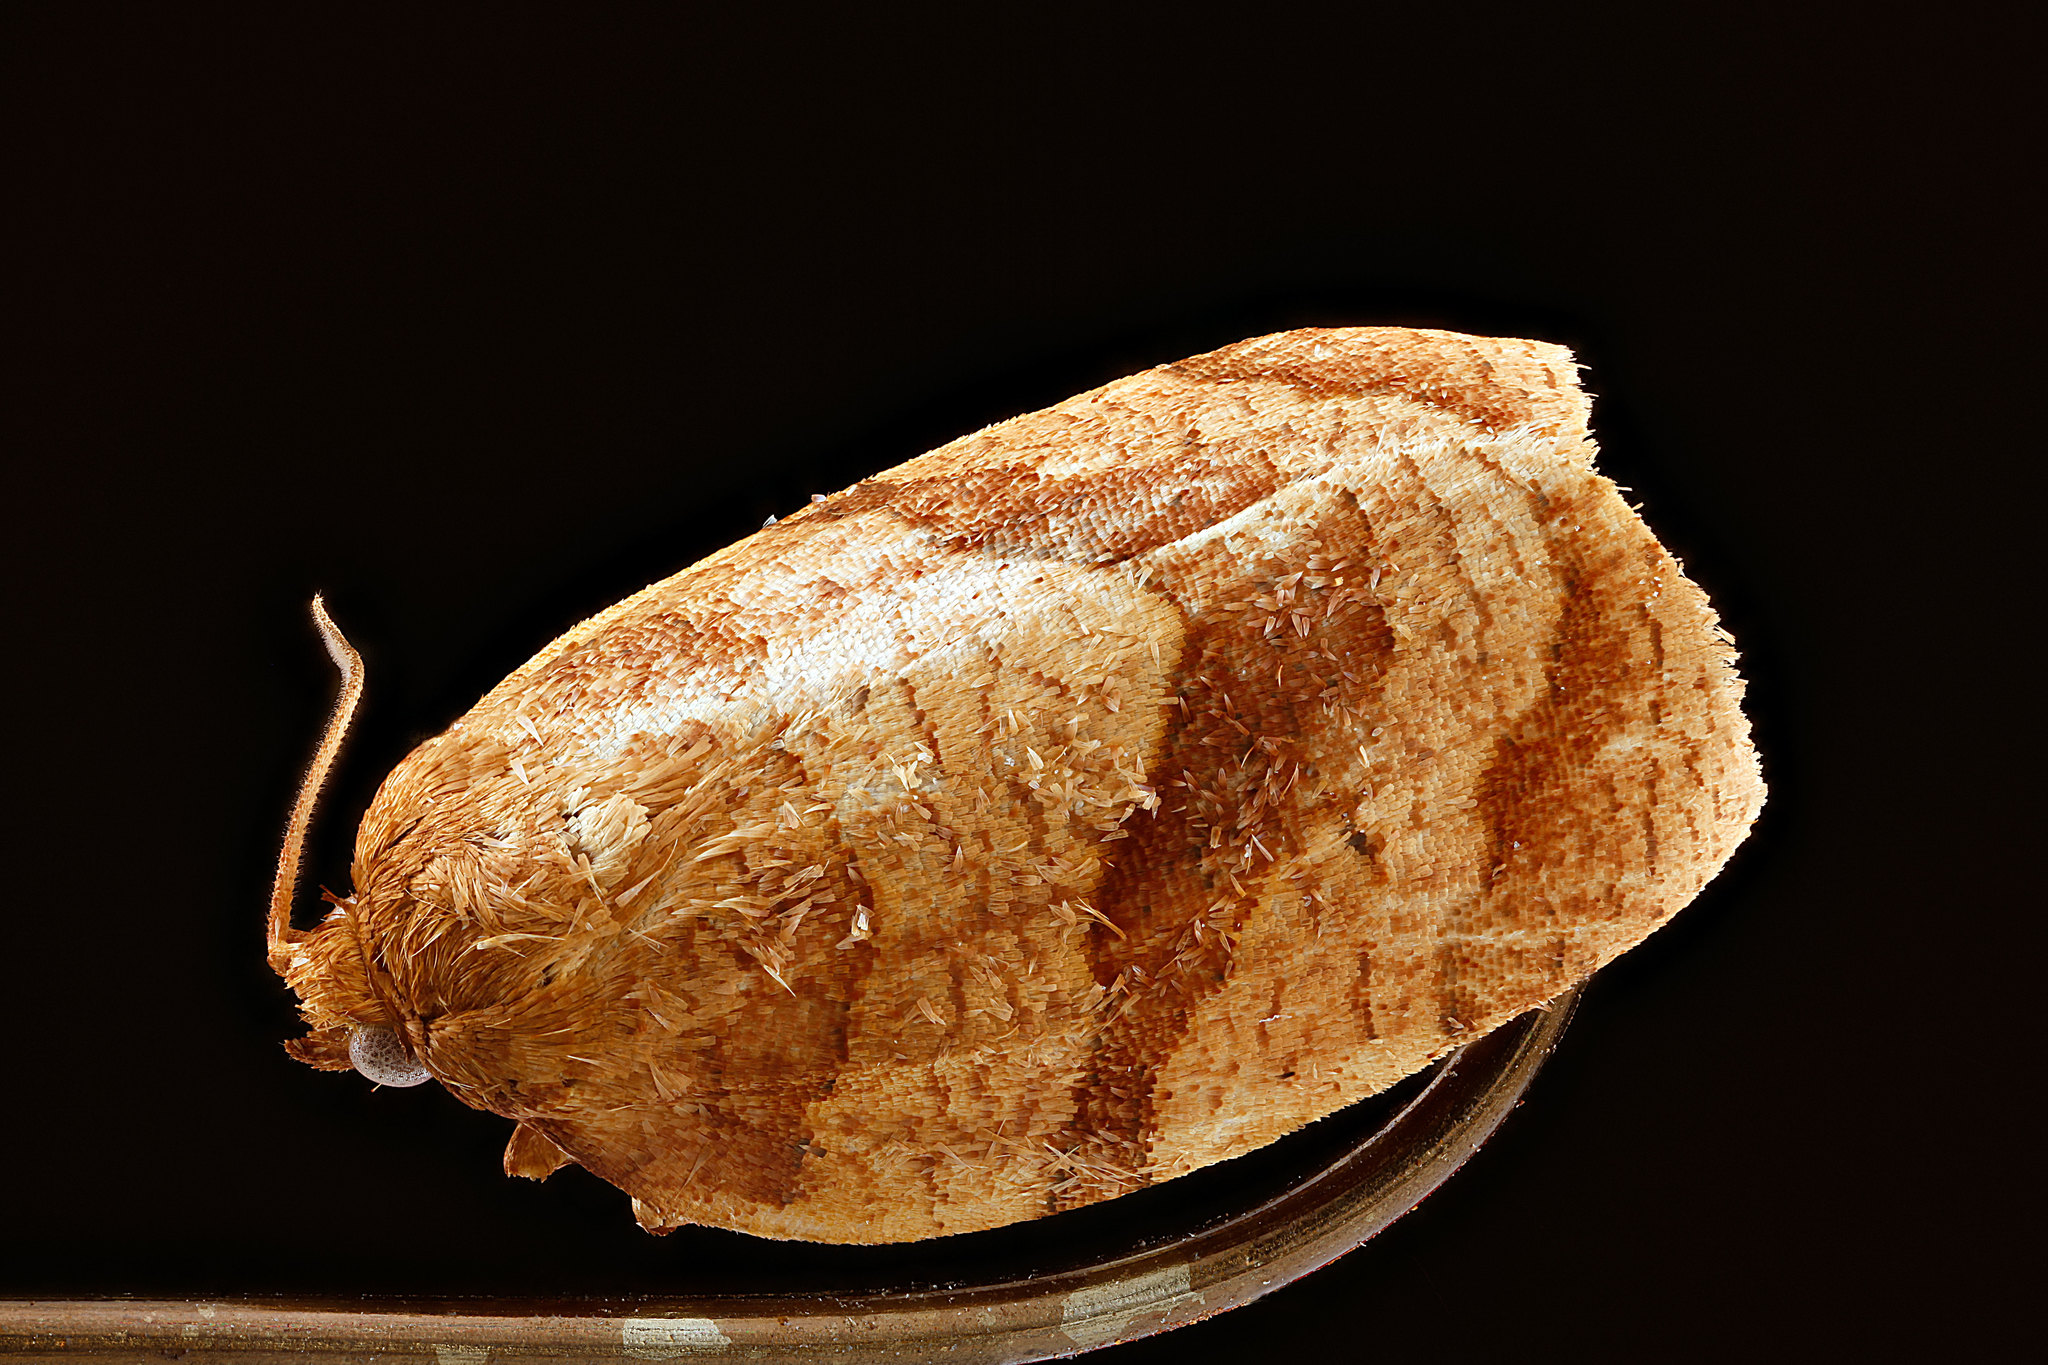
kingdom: Animalia
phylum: Arthropoda
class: Insecta
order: Lepidoptera
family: Tortricidae
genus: Choristoneura
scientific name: Choristoneura parallela
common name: Parallel-banded leafroller moth
